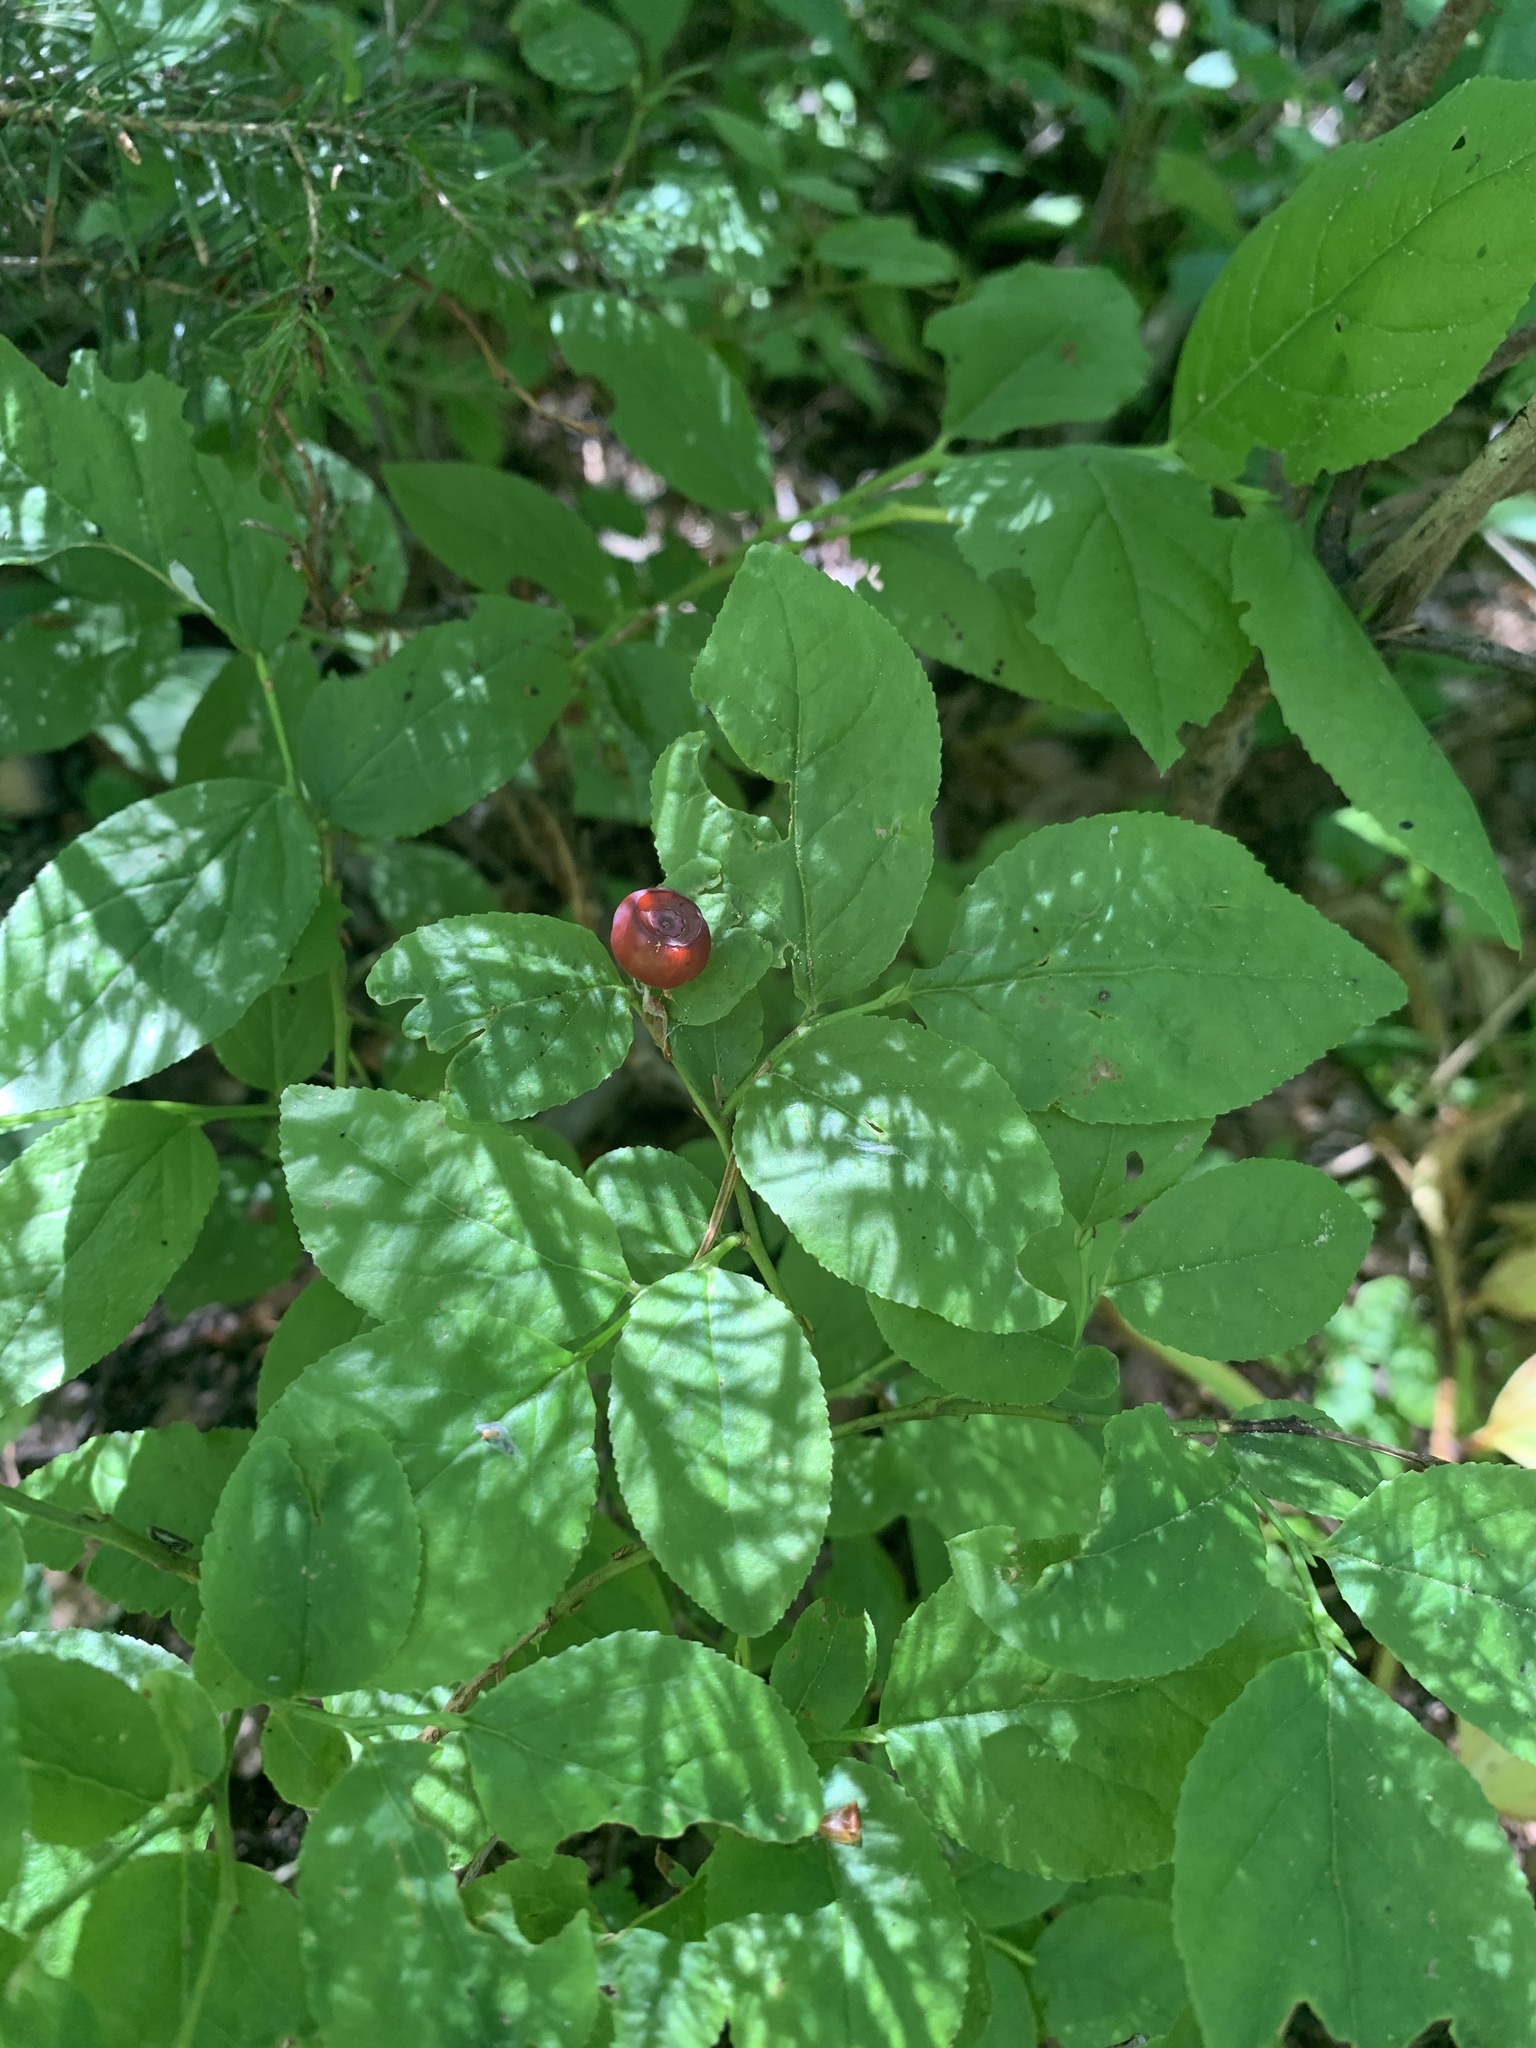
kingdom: Plantae
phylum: Tracheophyta
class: Magnoliopsida
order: Ericales
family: Ericaceae
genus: Vaccinium
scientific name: Vaccinium membranaceum
